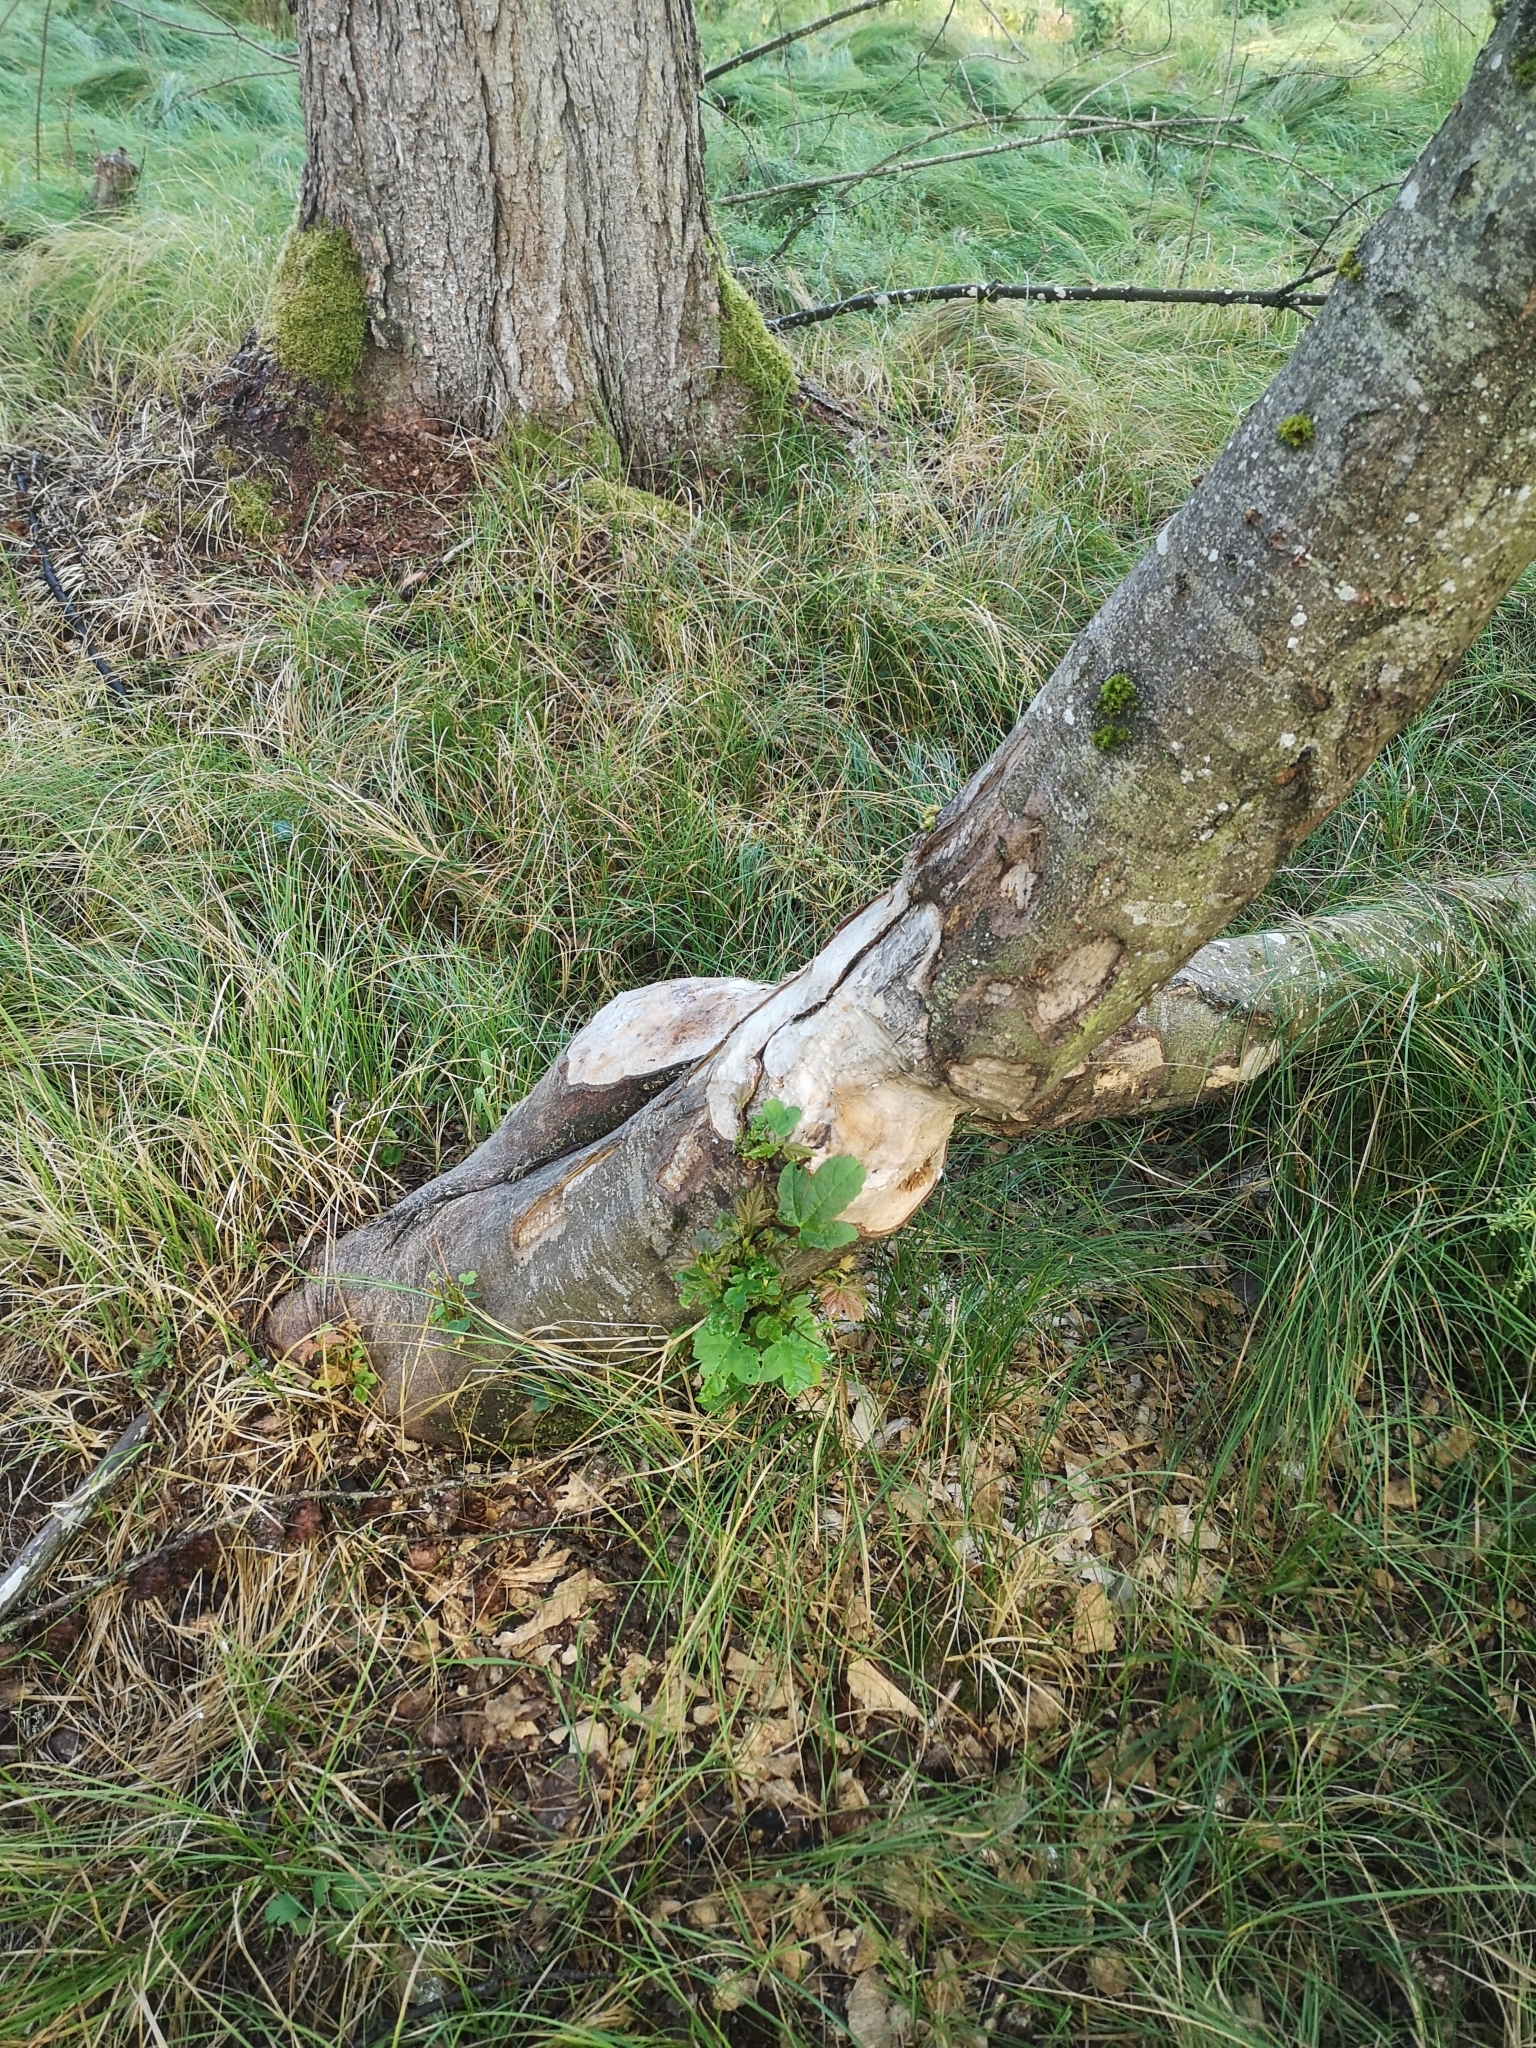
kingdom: Animalia
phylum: Chordata
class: Mammalia
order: Rodentia
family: Castoridae
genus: Castor
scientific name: Castor fiber
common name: Eurasian beaver
